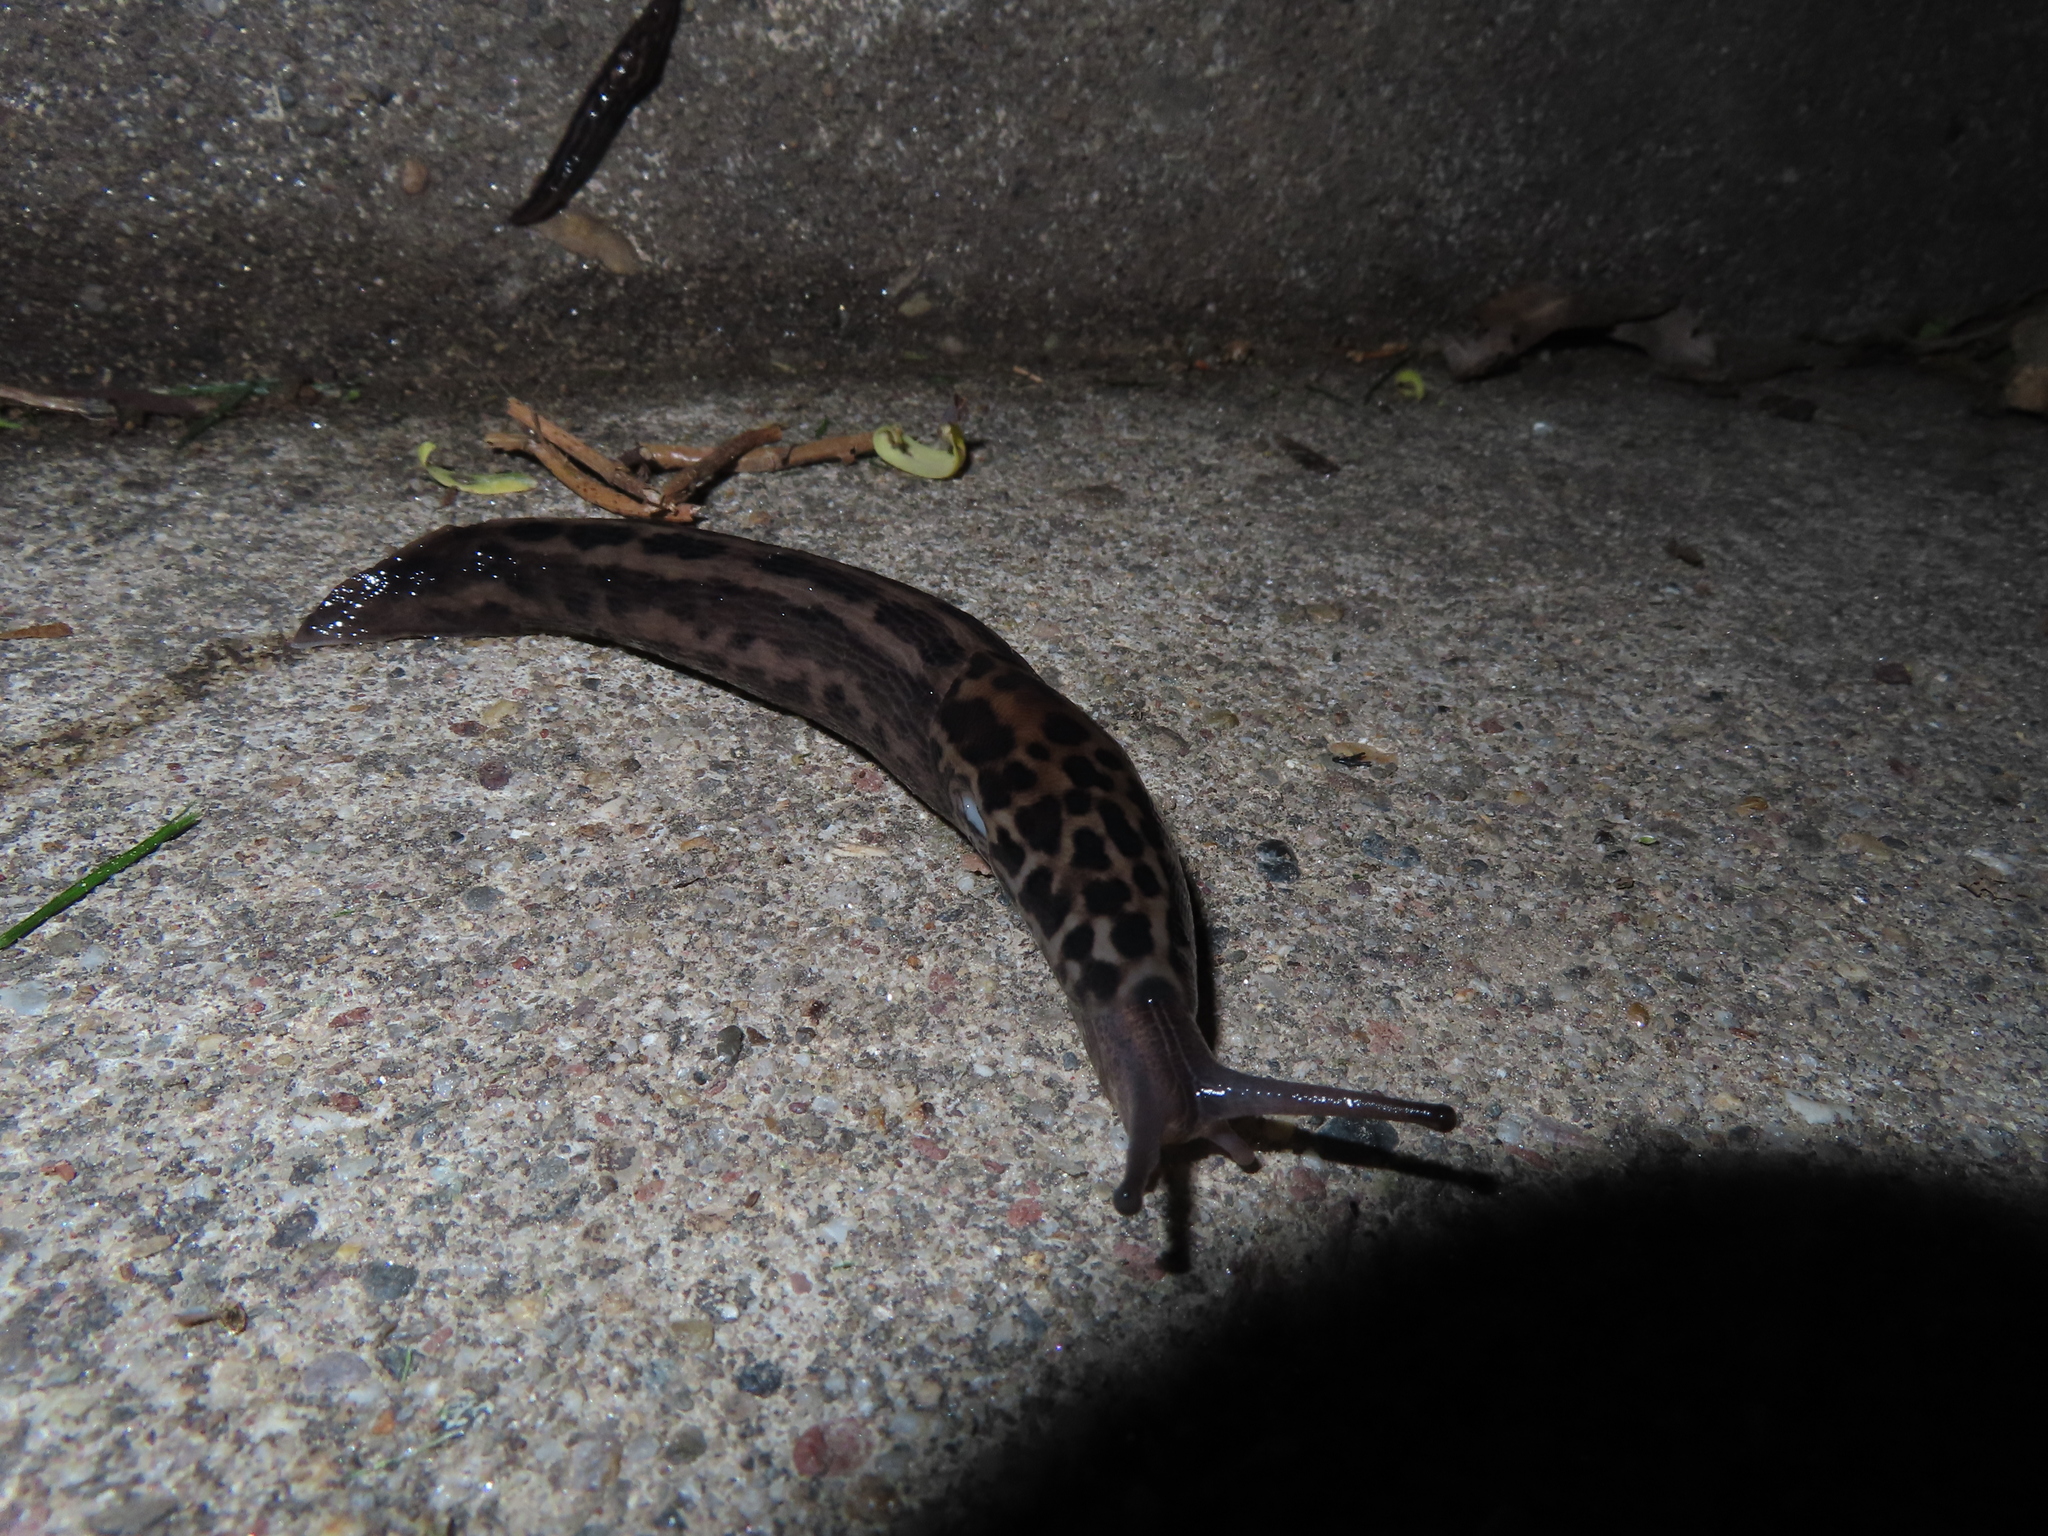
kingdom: Animalia
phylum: Mollusca
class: Gastropoda
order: Stylommatophora
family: Limacidae
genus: Limax
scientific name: Limax maximus
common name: Great grey slug
